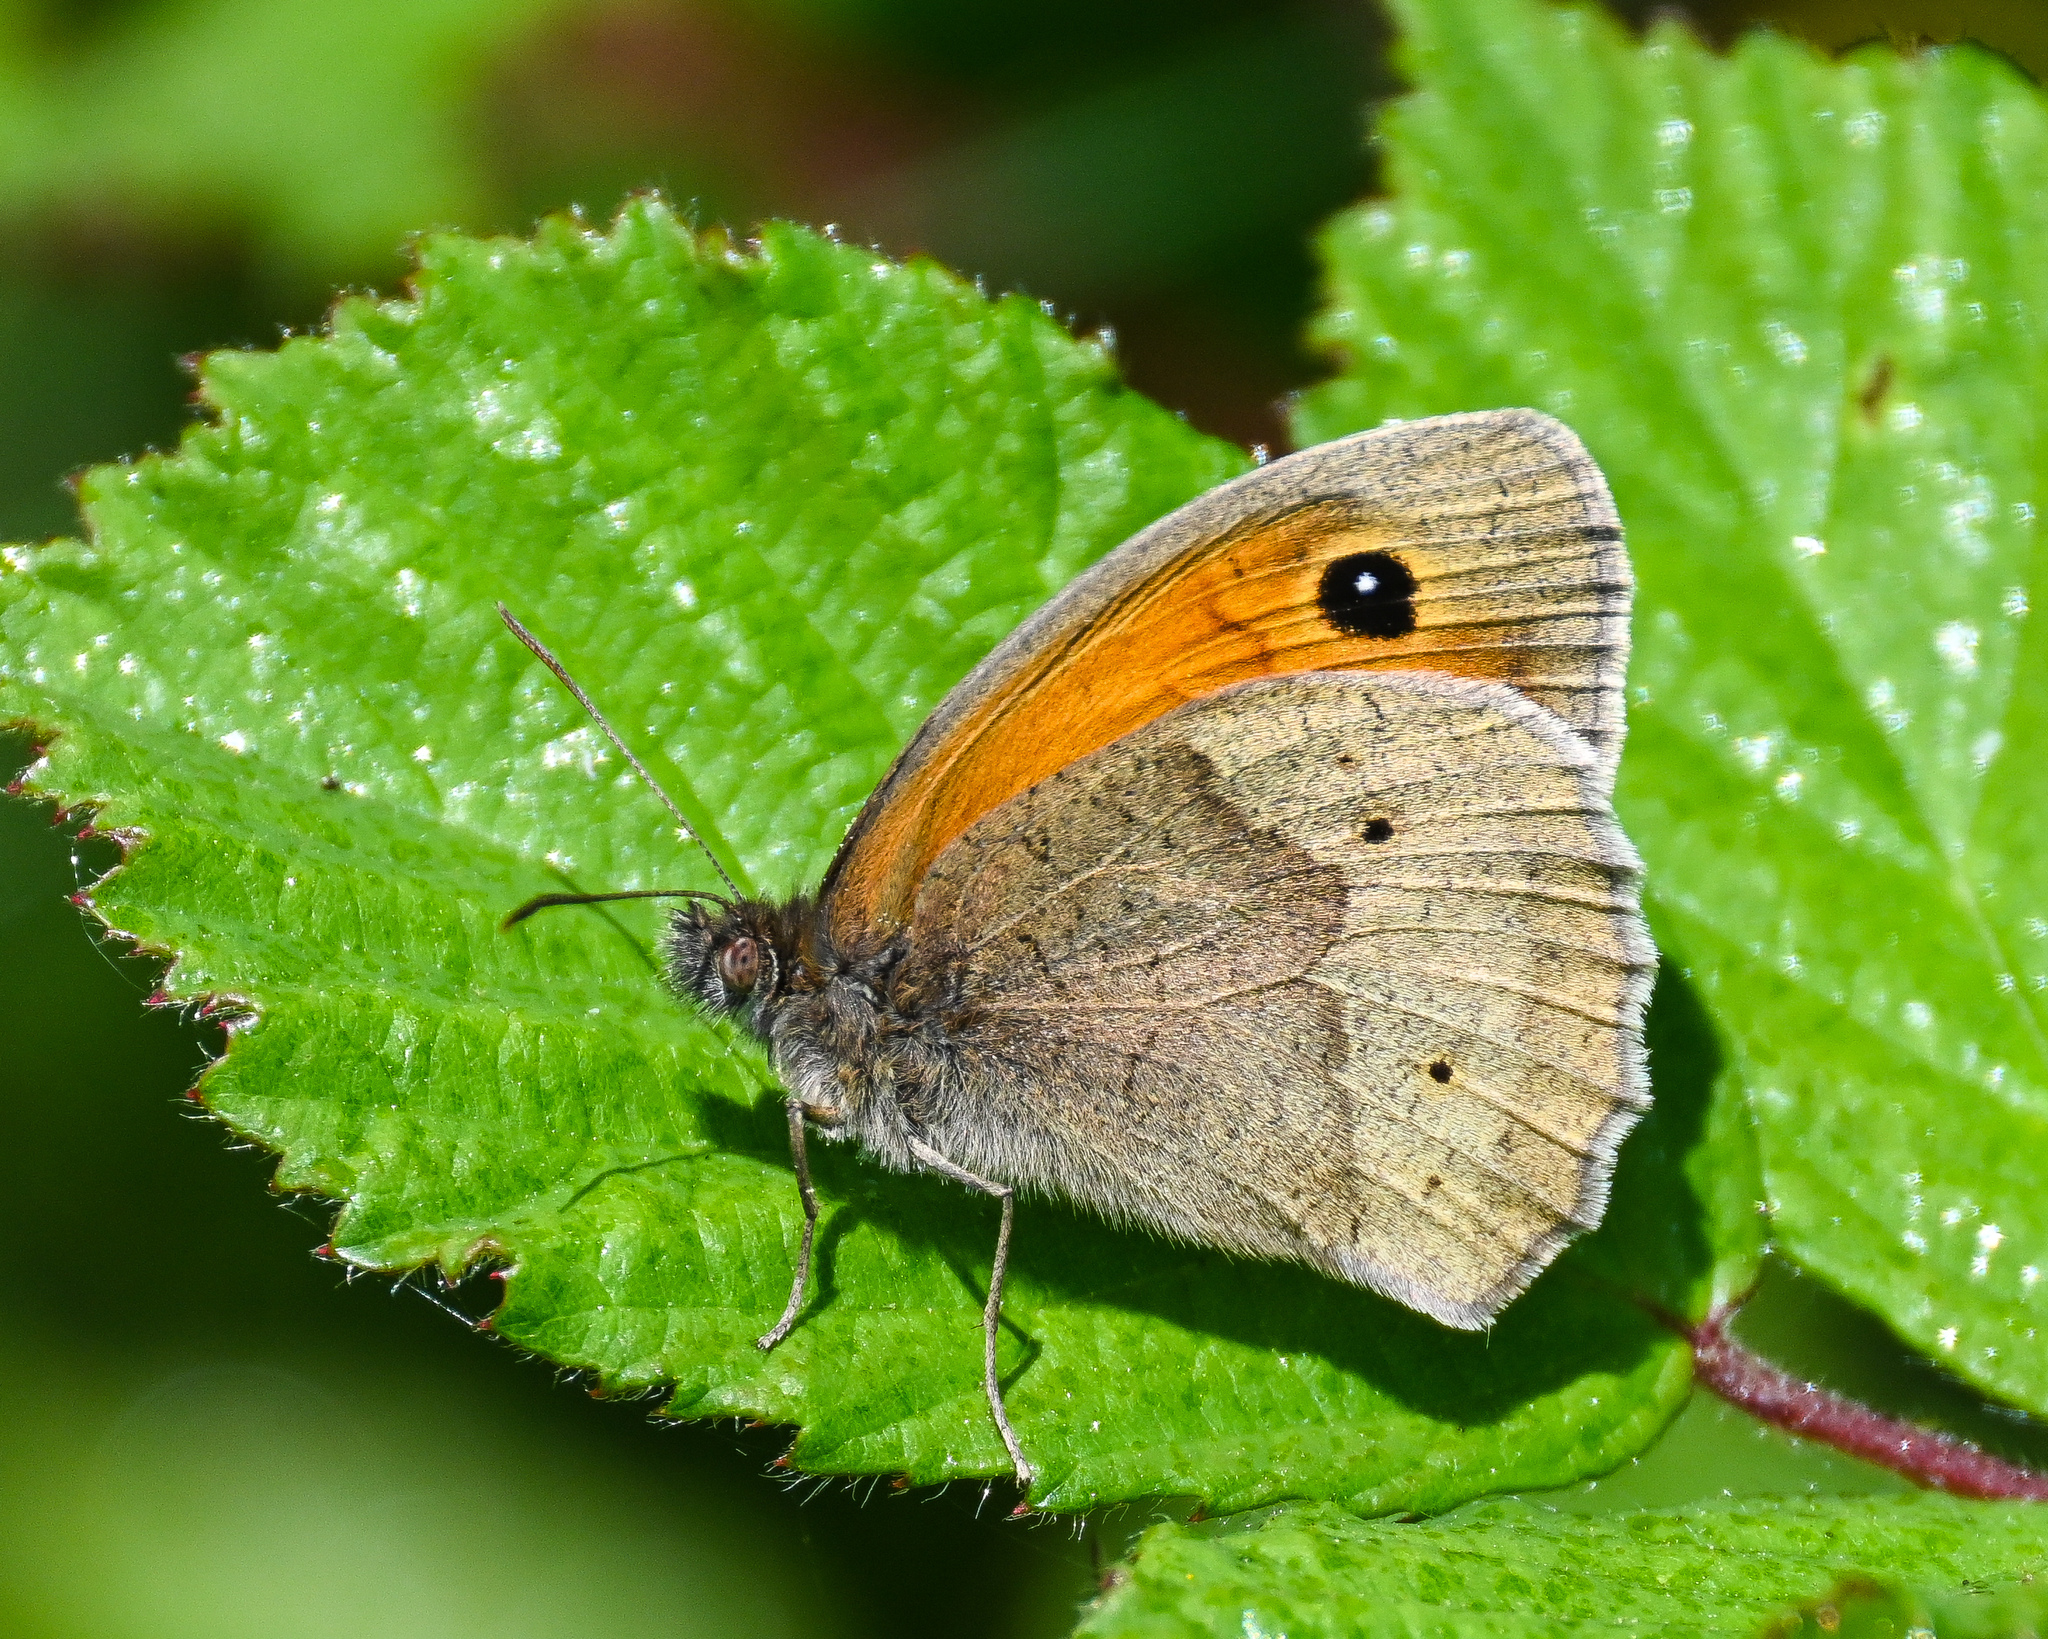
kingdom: Animalia
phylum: Arthropoda
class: Insecta
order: Lepidoptera
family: Nymphalidae
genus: Maniola
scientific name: Maniola jurtina
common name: Meadow brown
